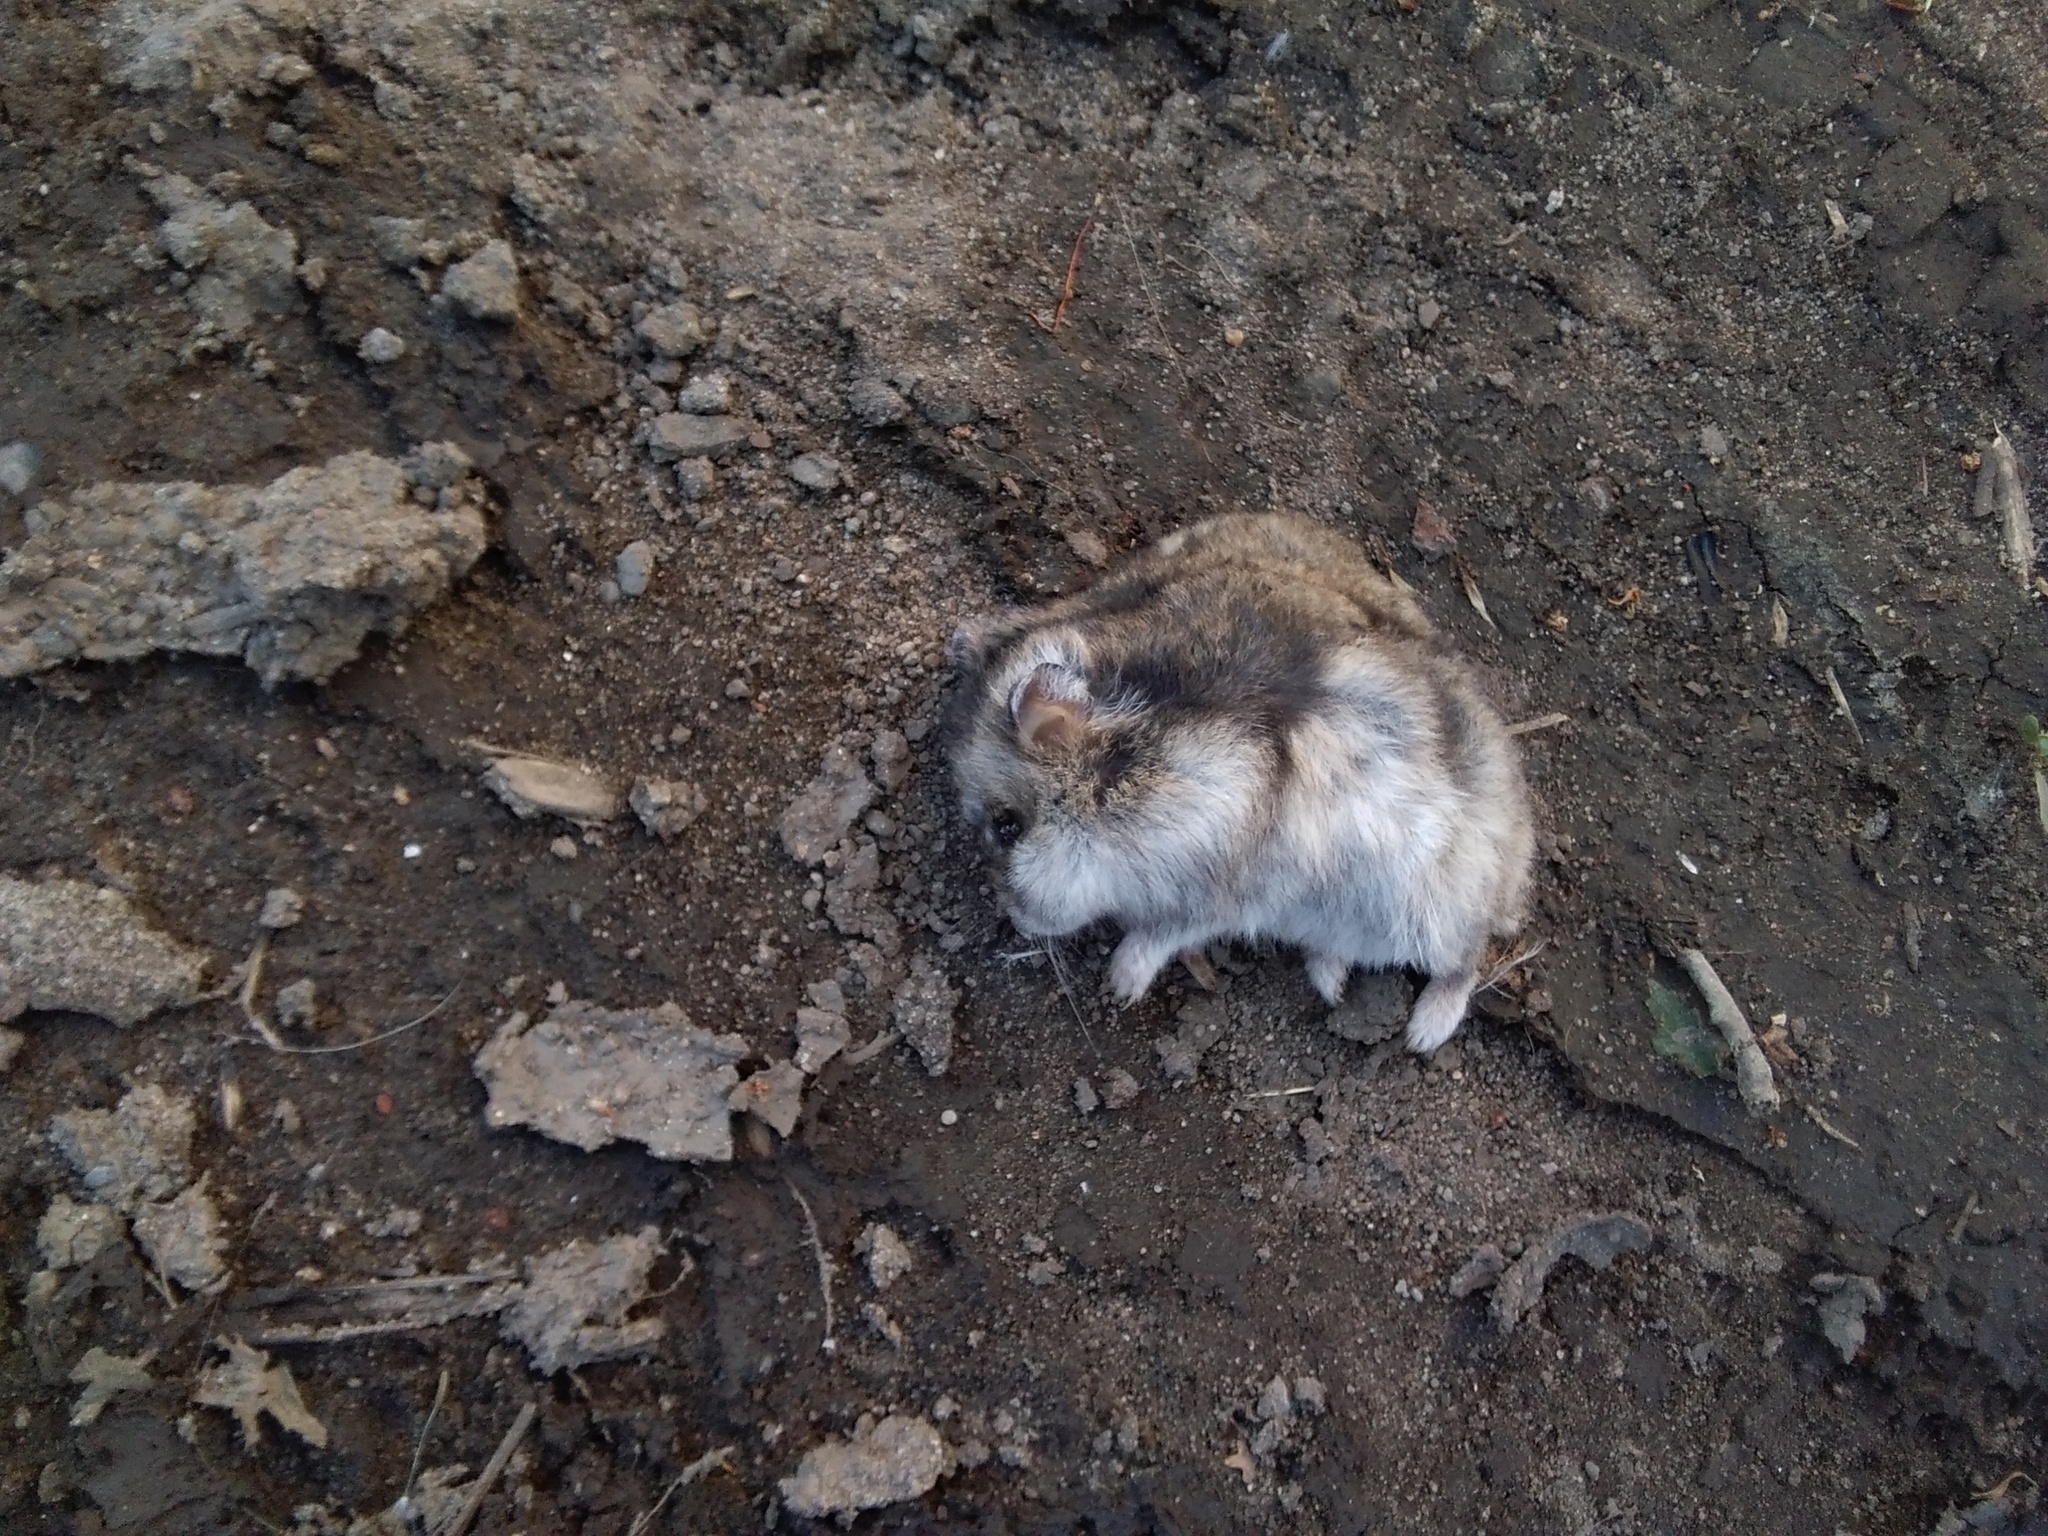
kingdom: Animalia
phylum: Chordata
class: Mammalia
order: Rodentia
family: Cricetidae
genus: Phodopus
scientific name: Phodopus sungorus
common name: Striped desert hamster
